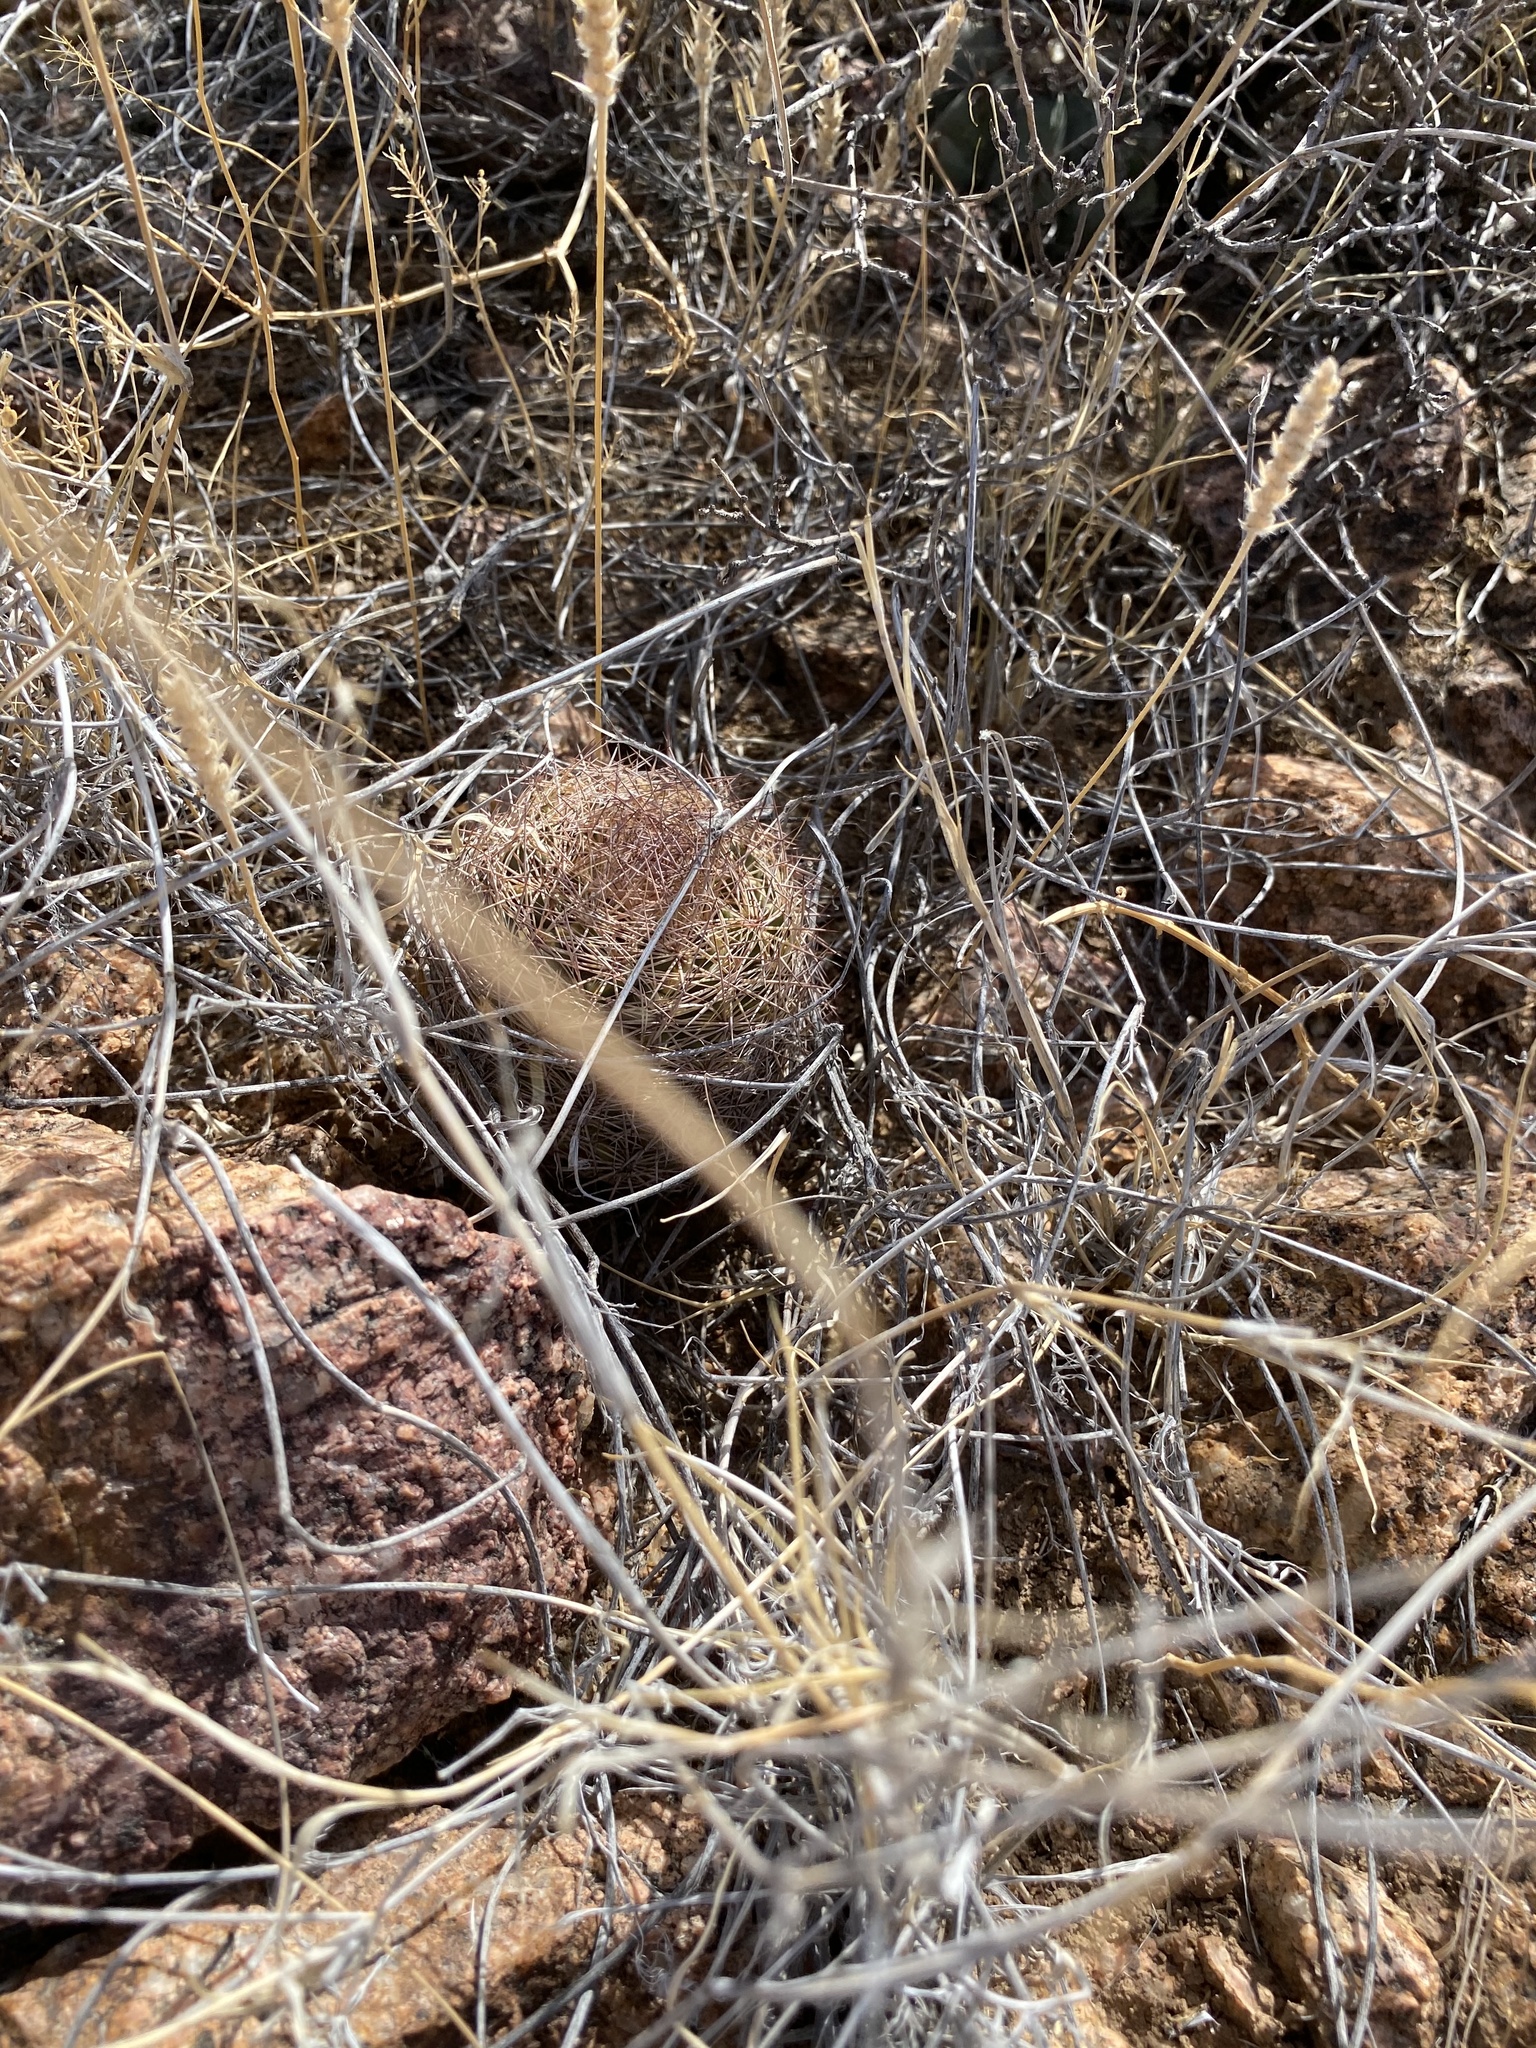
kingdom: Plantae
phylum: Tracheophyta
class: Magnoliopsida
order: Caryophyllales
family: Cactaceae
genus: Sclerocactus
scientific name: Sclerocactus intertextus
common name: White fish-hook cactus
